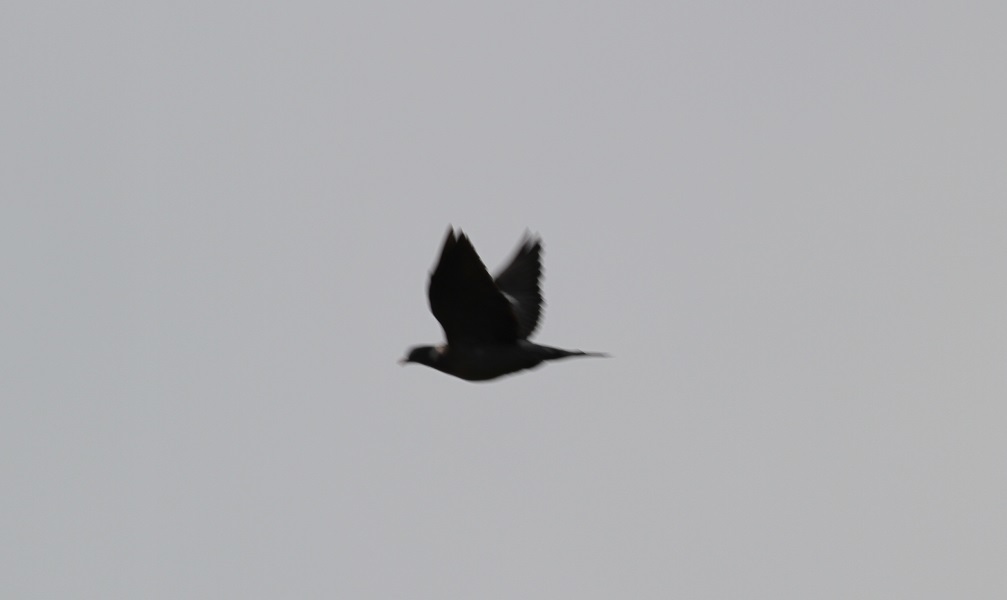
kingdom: Animalia
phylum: Chordata
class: Aves
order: Columbiformes
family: Columbidae
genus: Columba
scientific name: Columba palumbus
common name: Common wood pigeon
